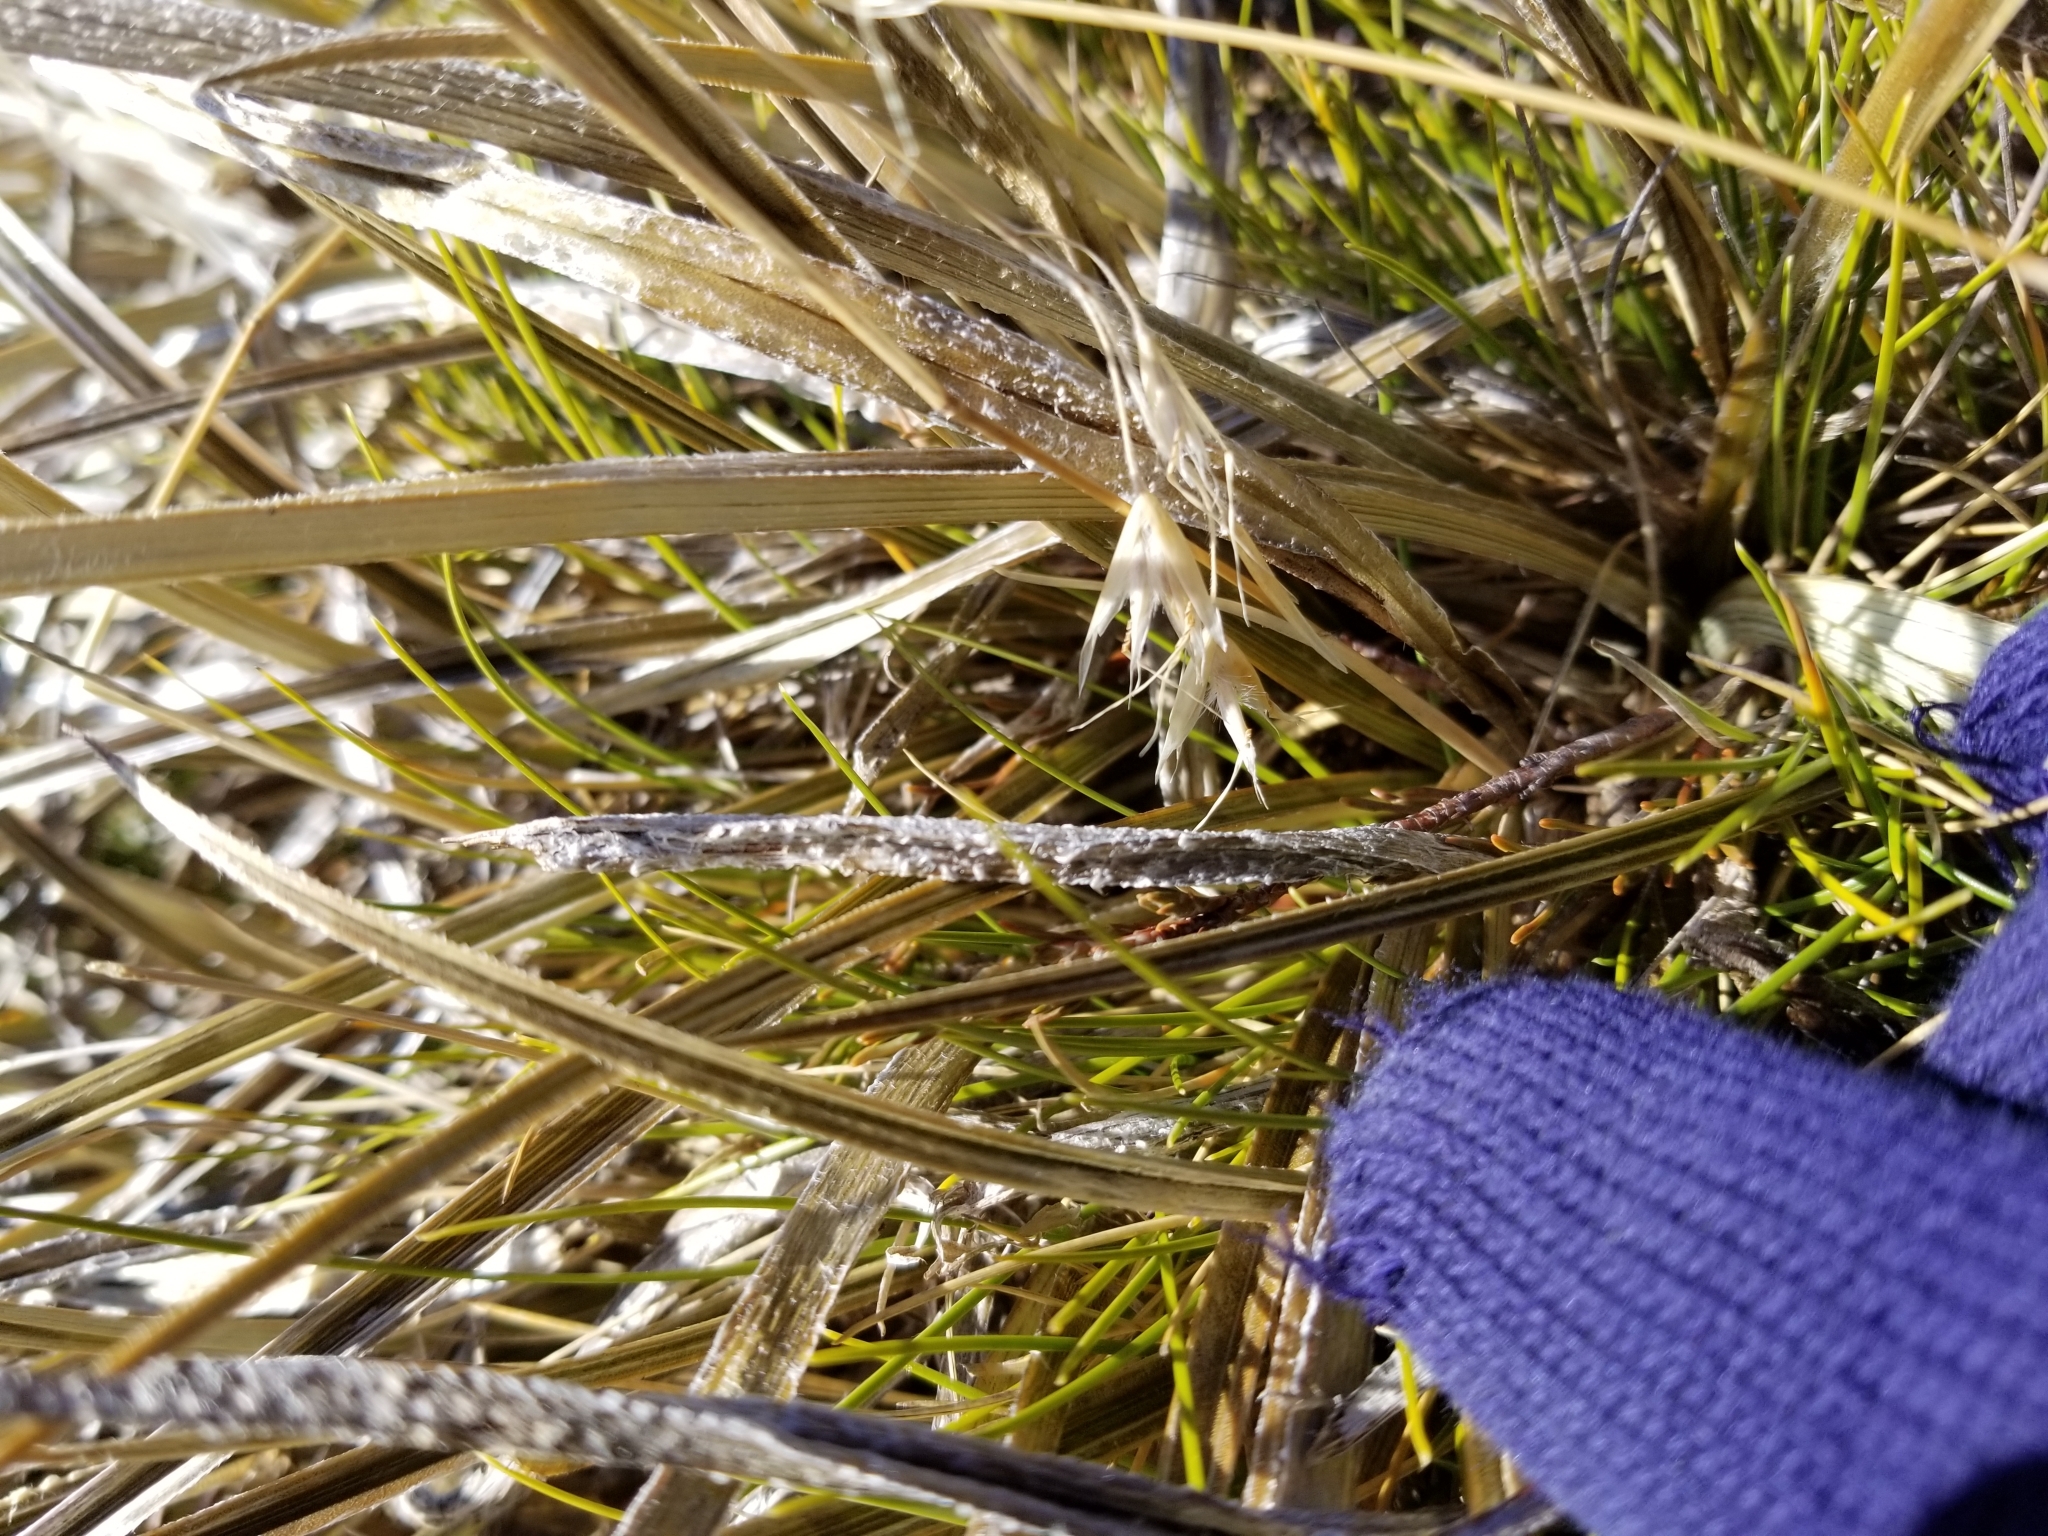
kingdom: Plantae
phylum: Tracheophyta
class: Liliopsida
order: Asparagales
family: Asteliaceae
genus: Astelia
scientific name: Astelia nivicola
